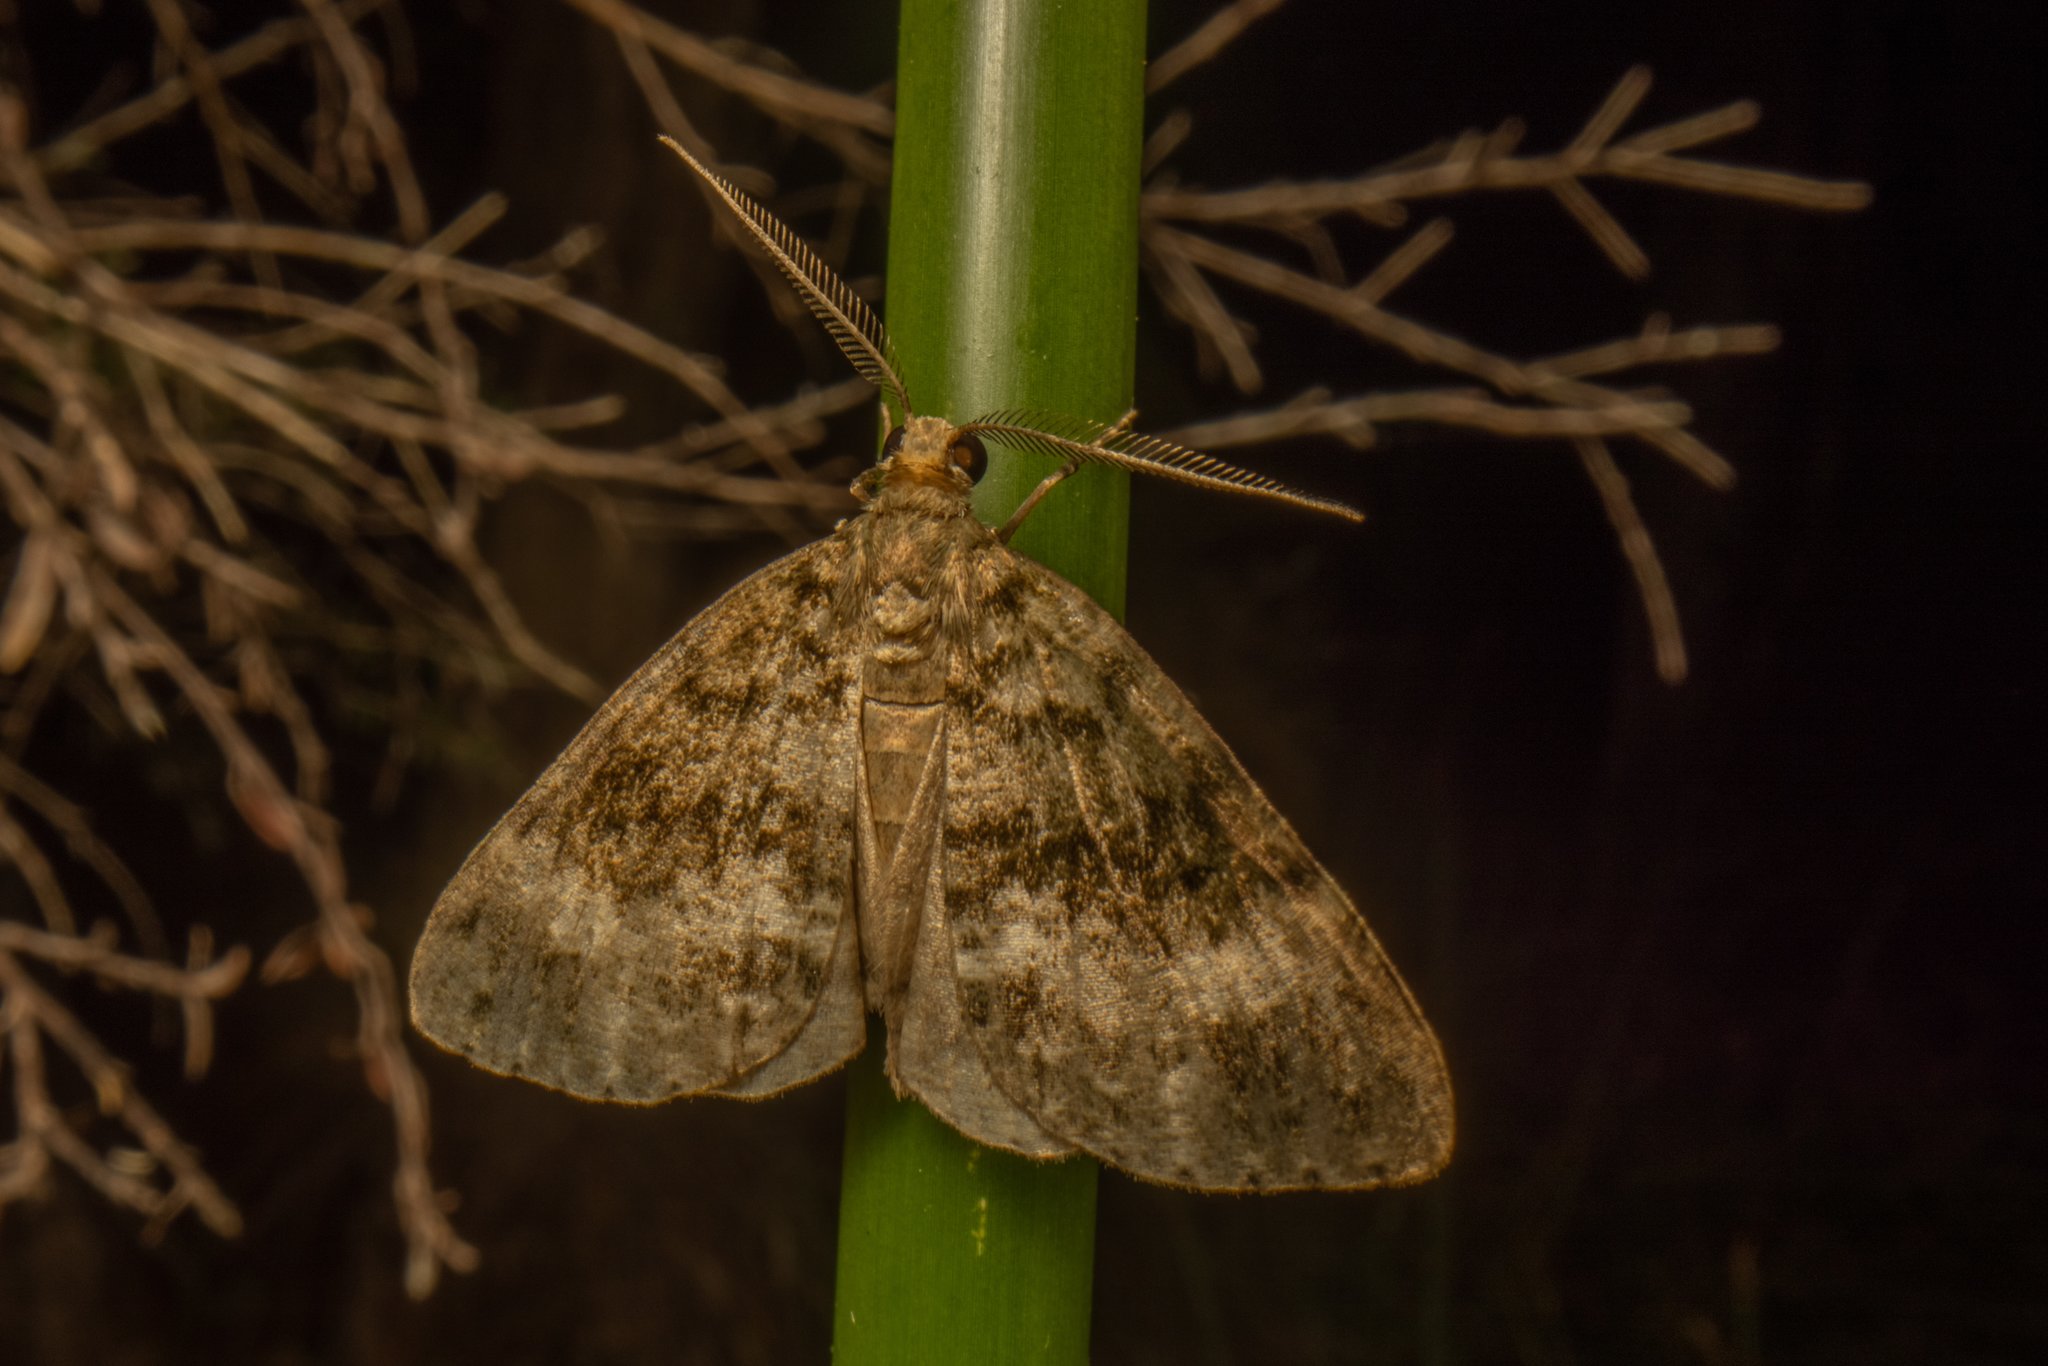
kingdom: Animalia
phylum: Arthropoda
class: Insecta
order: Lepidoptera
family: Geometridae
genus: Pseudocoremia
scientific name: Pseudocoremia indistincta
